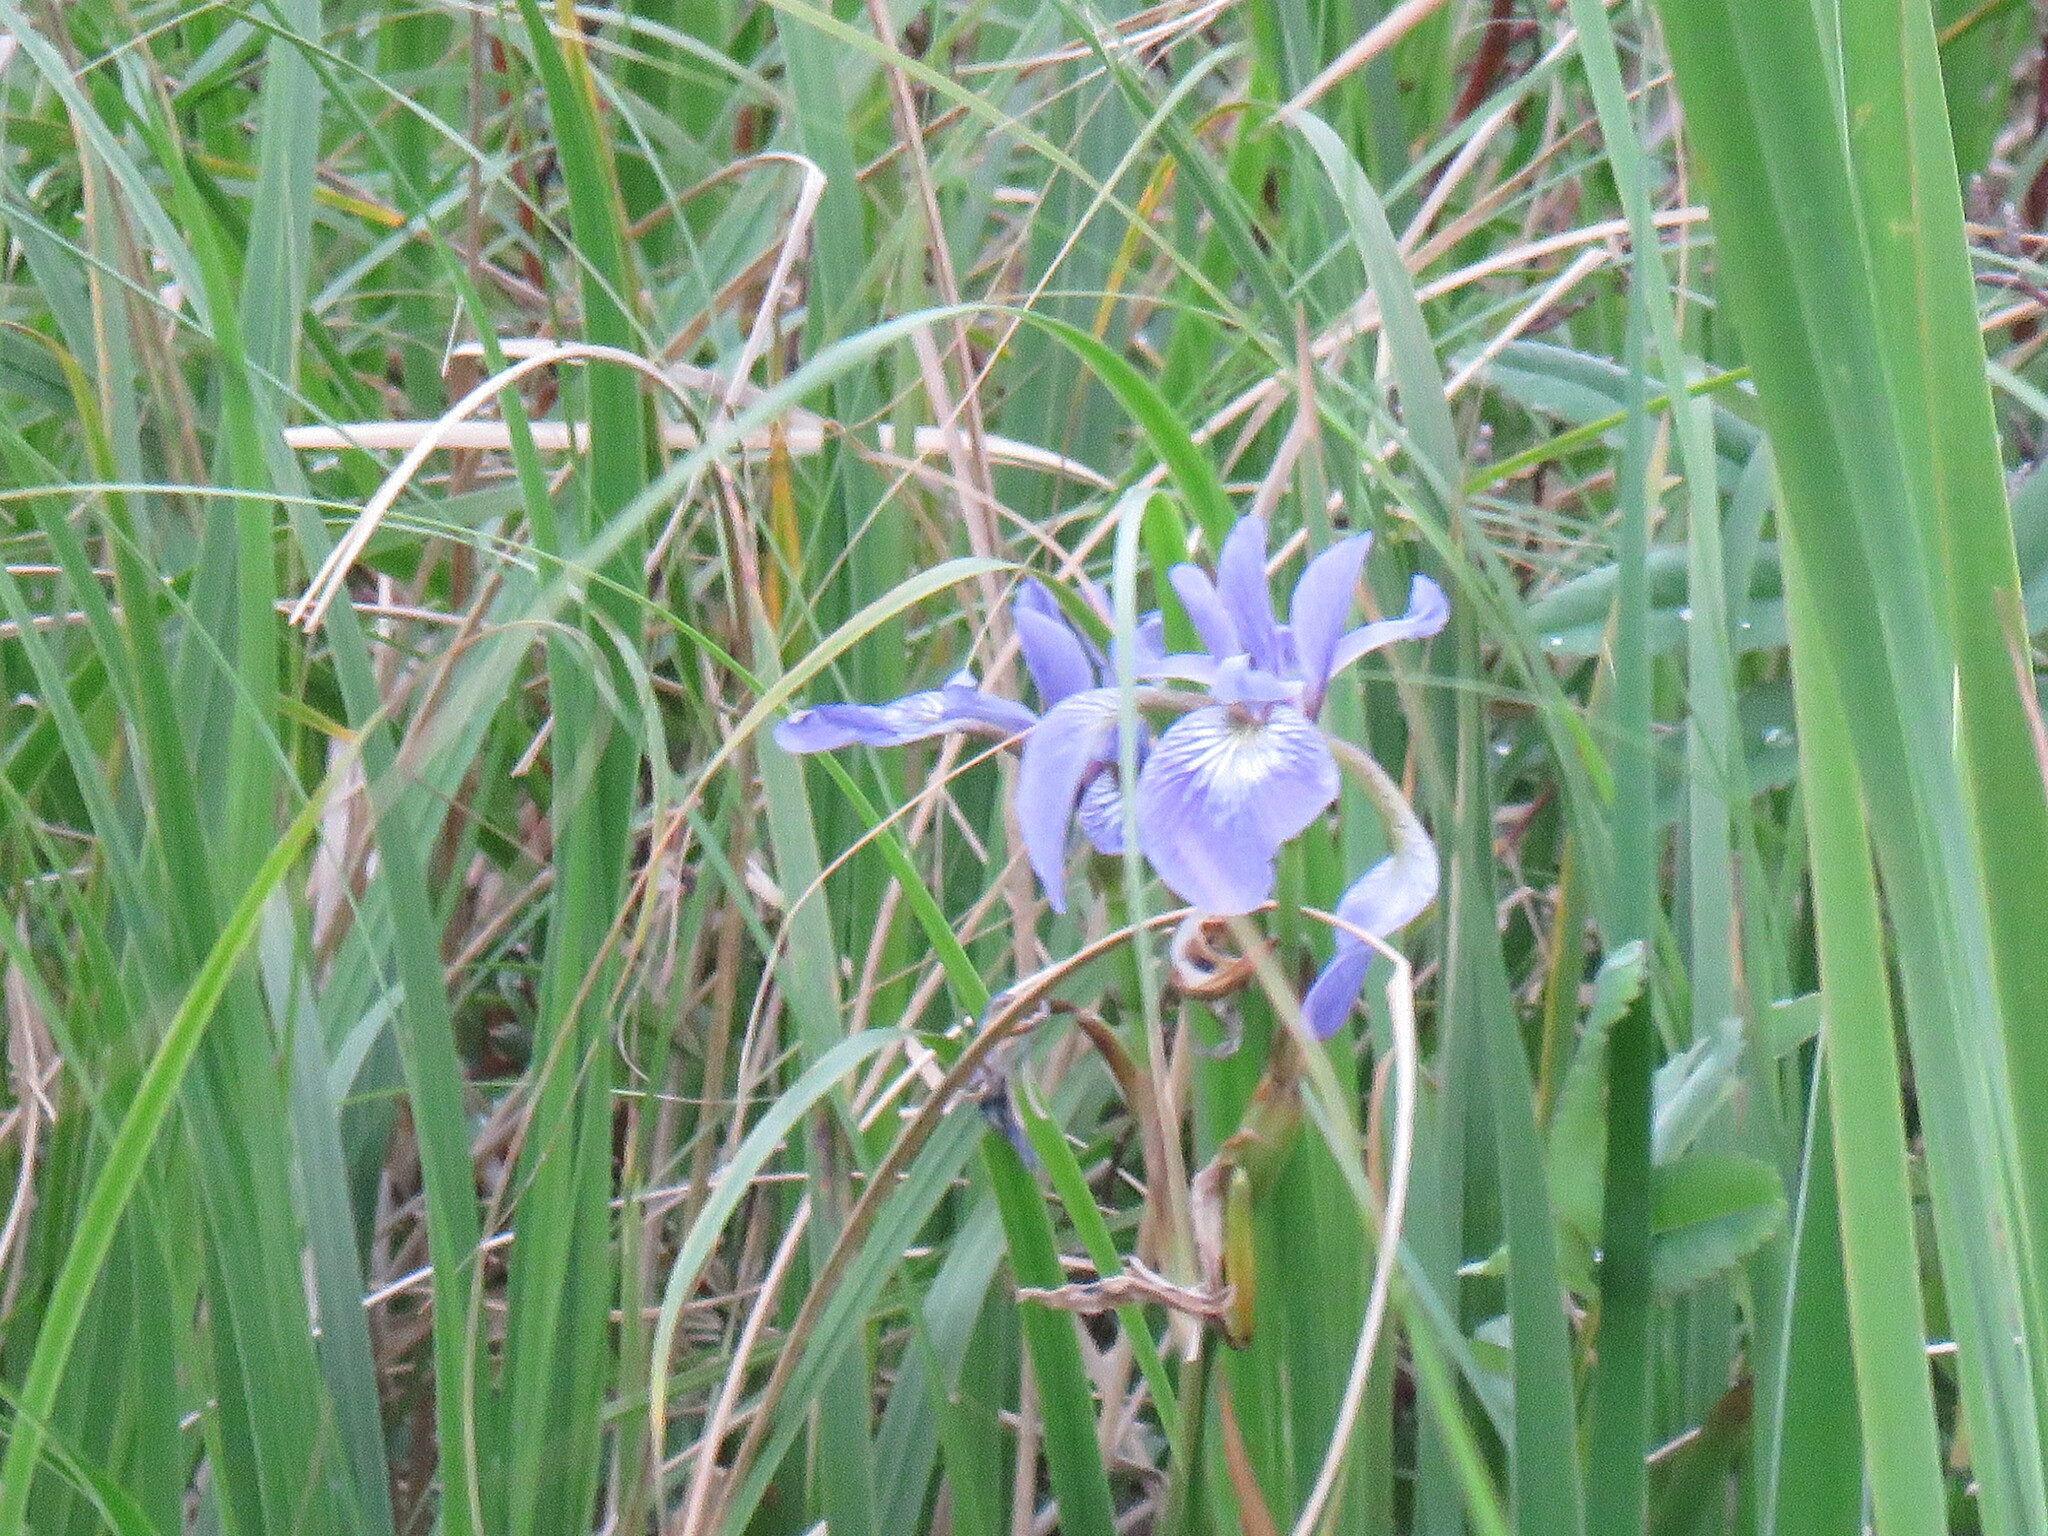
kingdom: Plantae
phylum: Tracheophyta
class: Liliopsida
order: Asparagales
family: Iridaceae
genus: Iris
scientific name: Iris versicolor
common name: Purple iris
